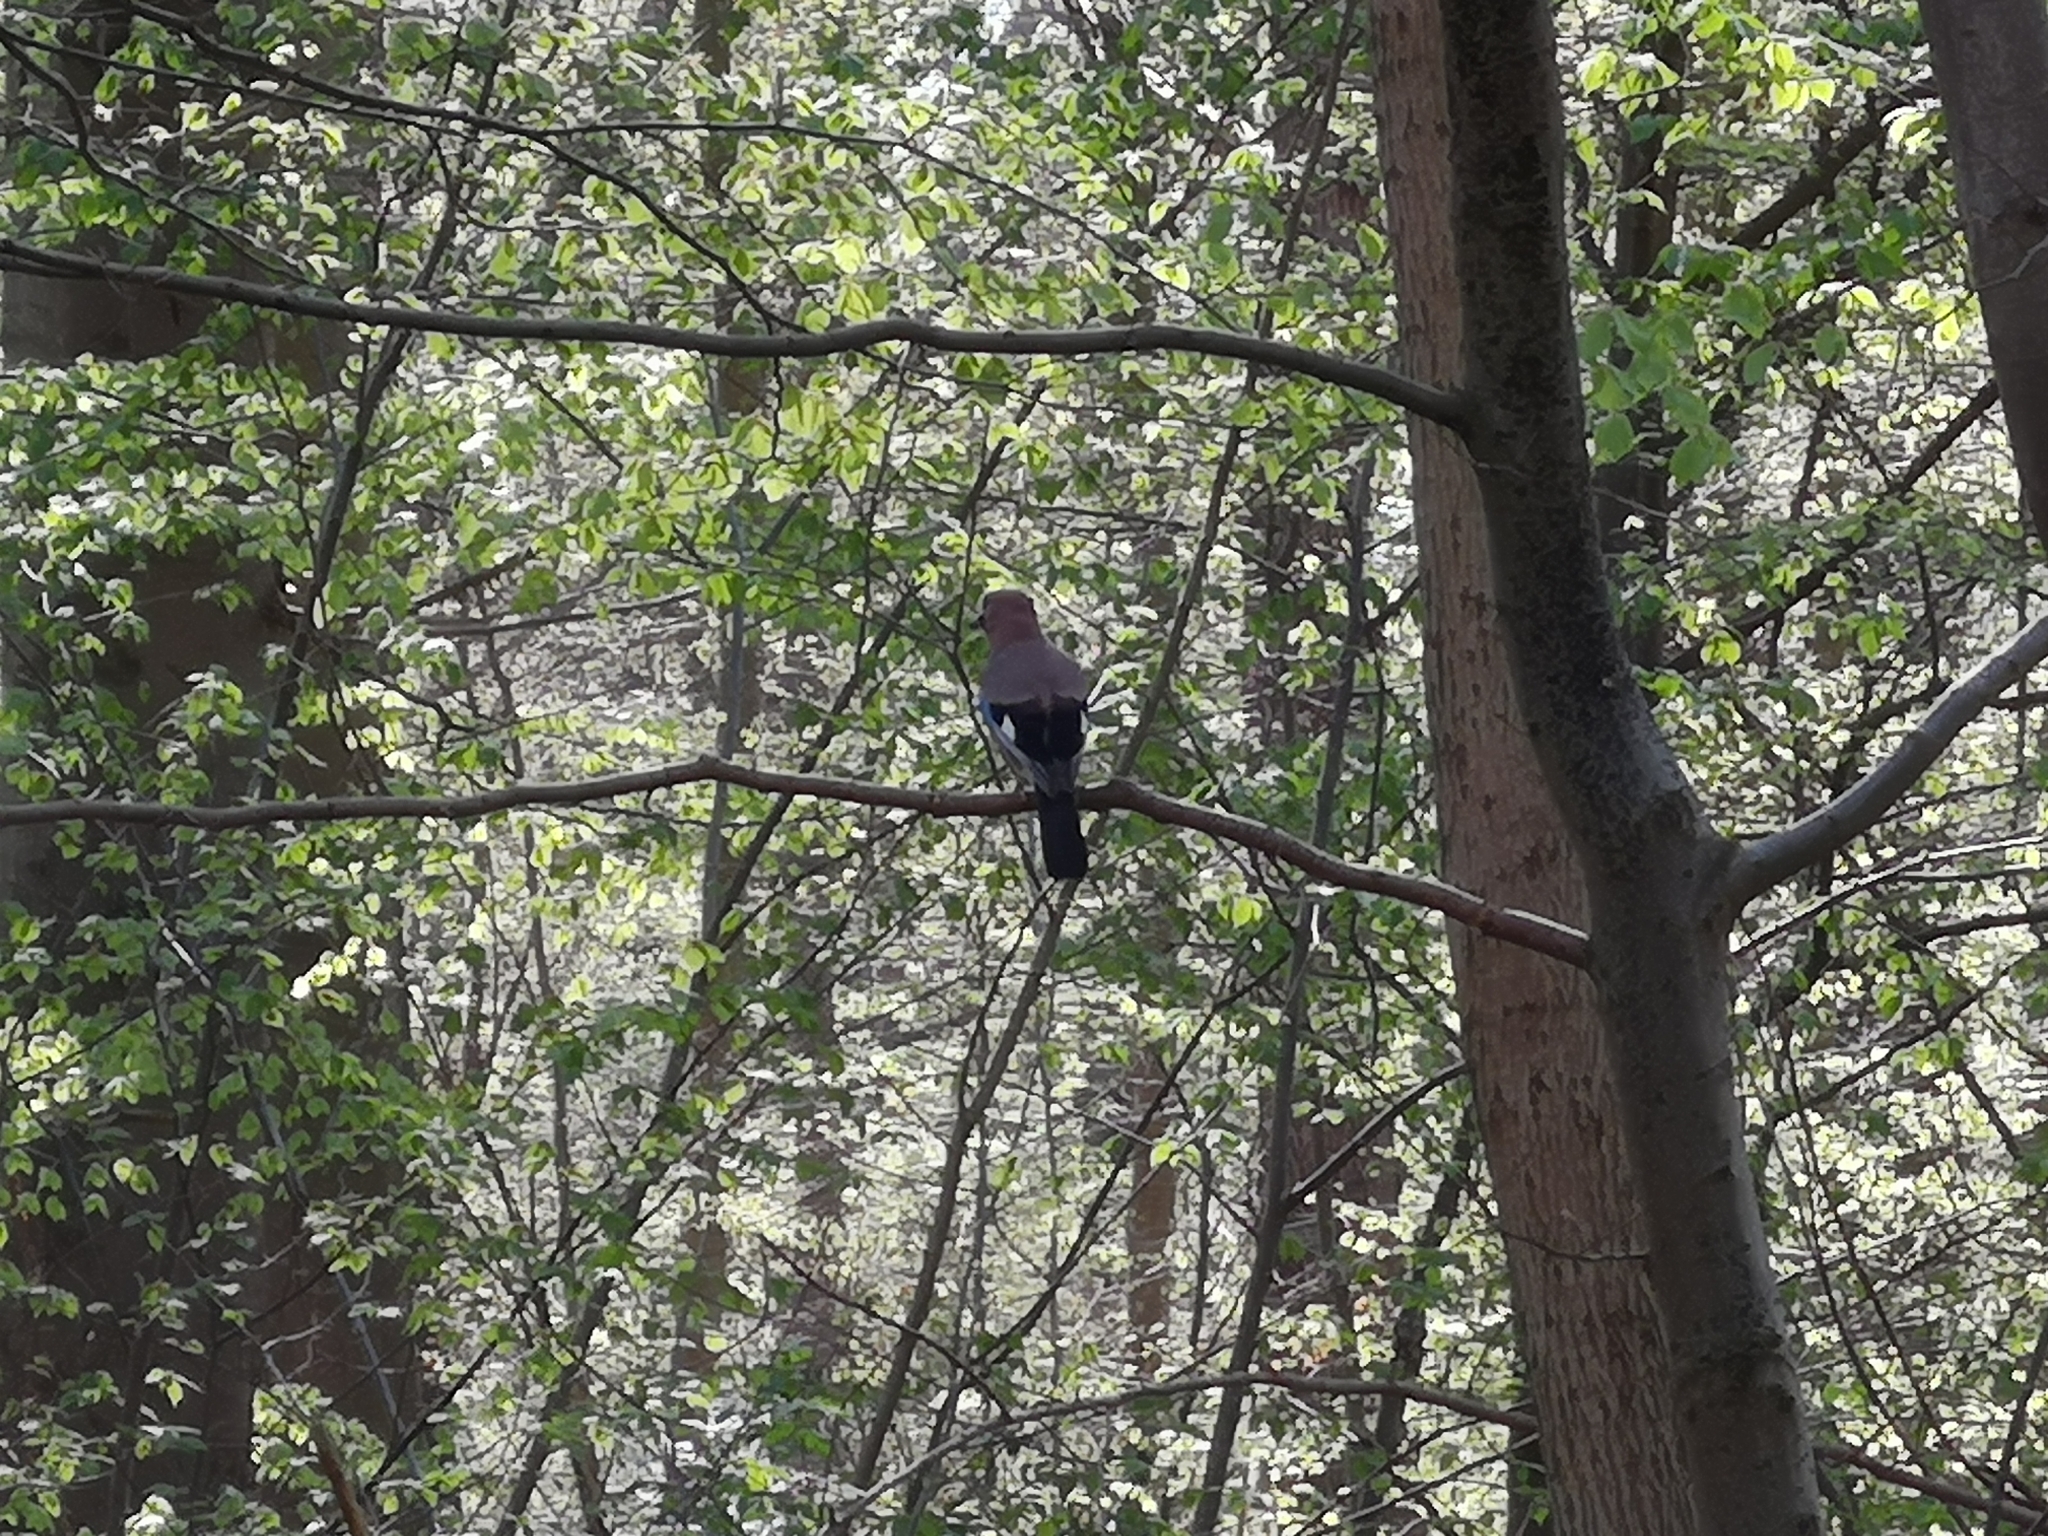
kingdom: Animalia
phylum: Chordata
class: Aves
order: Passeriformes
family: Corvidae
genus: Garrulus
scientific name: Garrulus glandarius
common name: Eurasian jay
